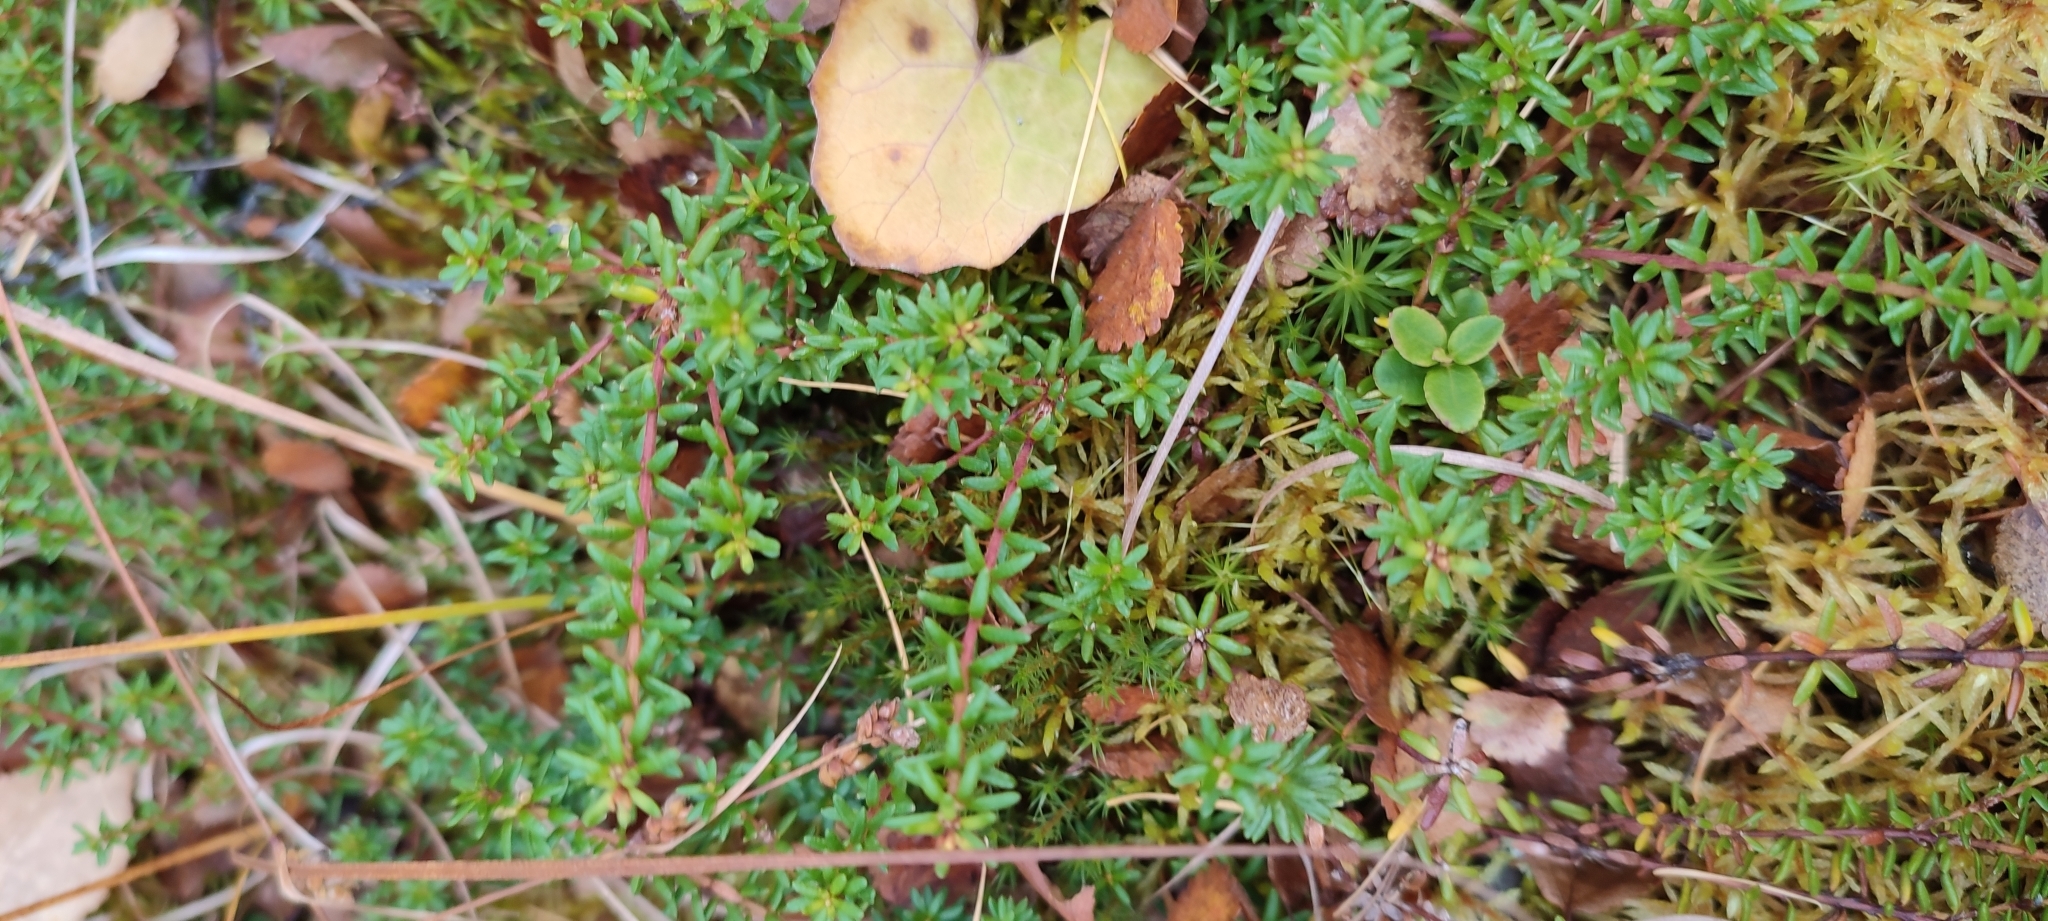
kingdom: Plantae
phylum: Tracheophyta
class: Magnoliopsida
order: Ericales
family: Ericaceae
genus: Empetrum
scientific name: Empetrum nigrum
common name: Black crowberry
